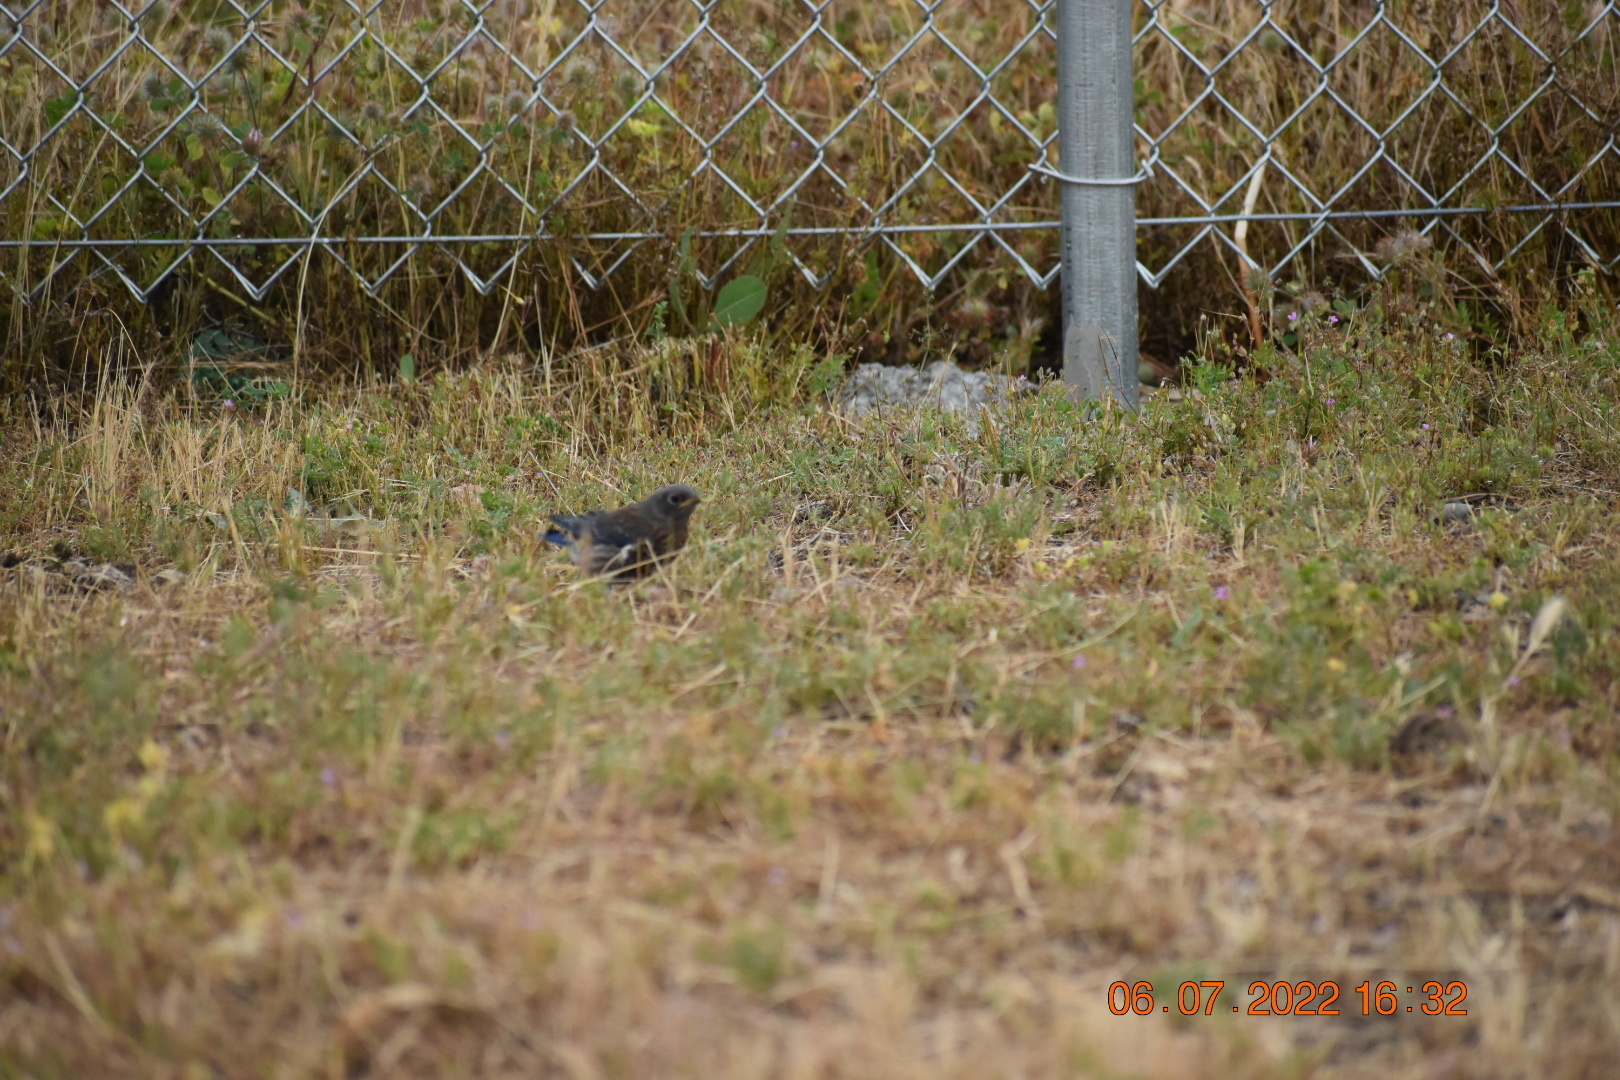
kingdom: Animalia
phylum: Chordata
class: Aves
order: Passeriformes
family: Turdidae
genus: Sialia
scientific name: Sialia mexicana
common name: Western bluebird
